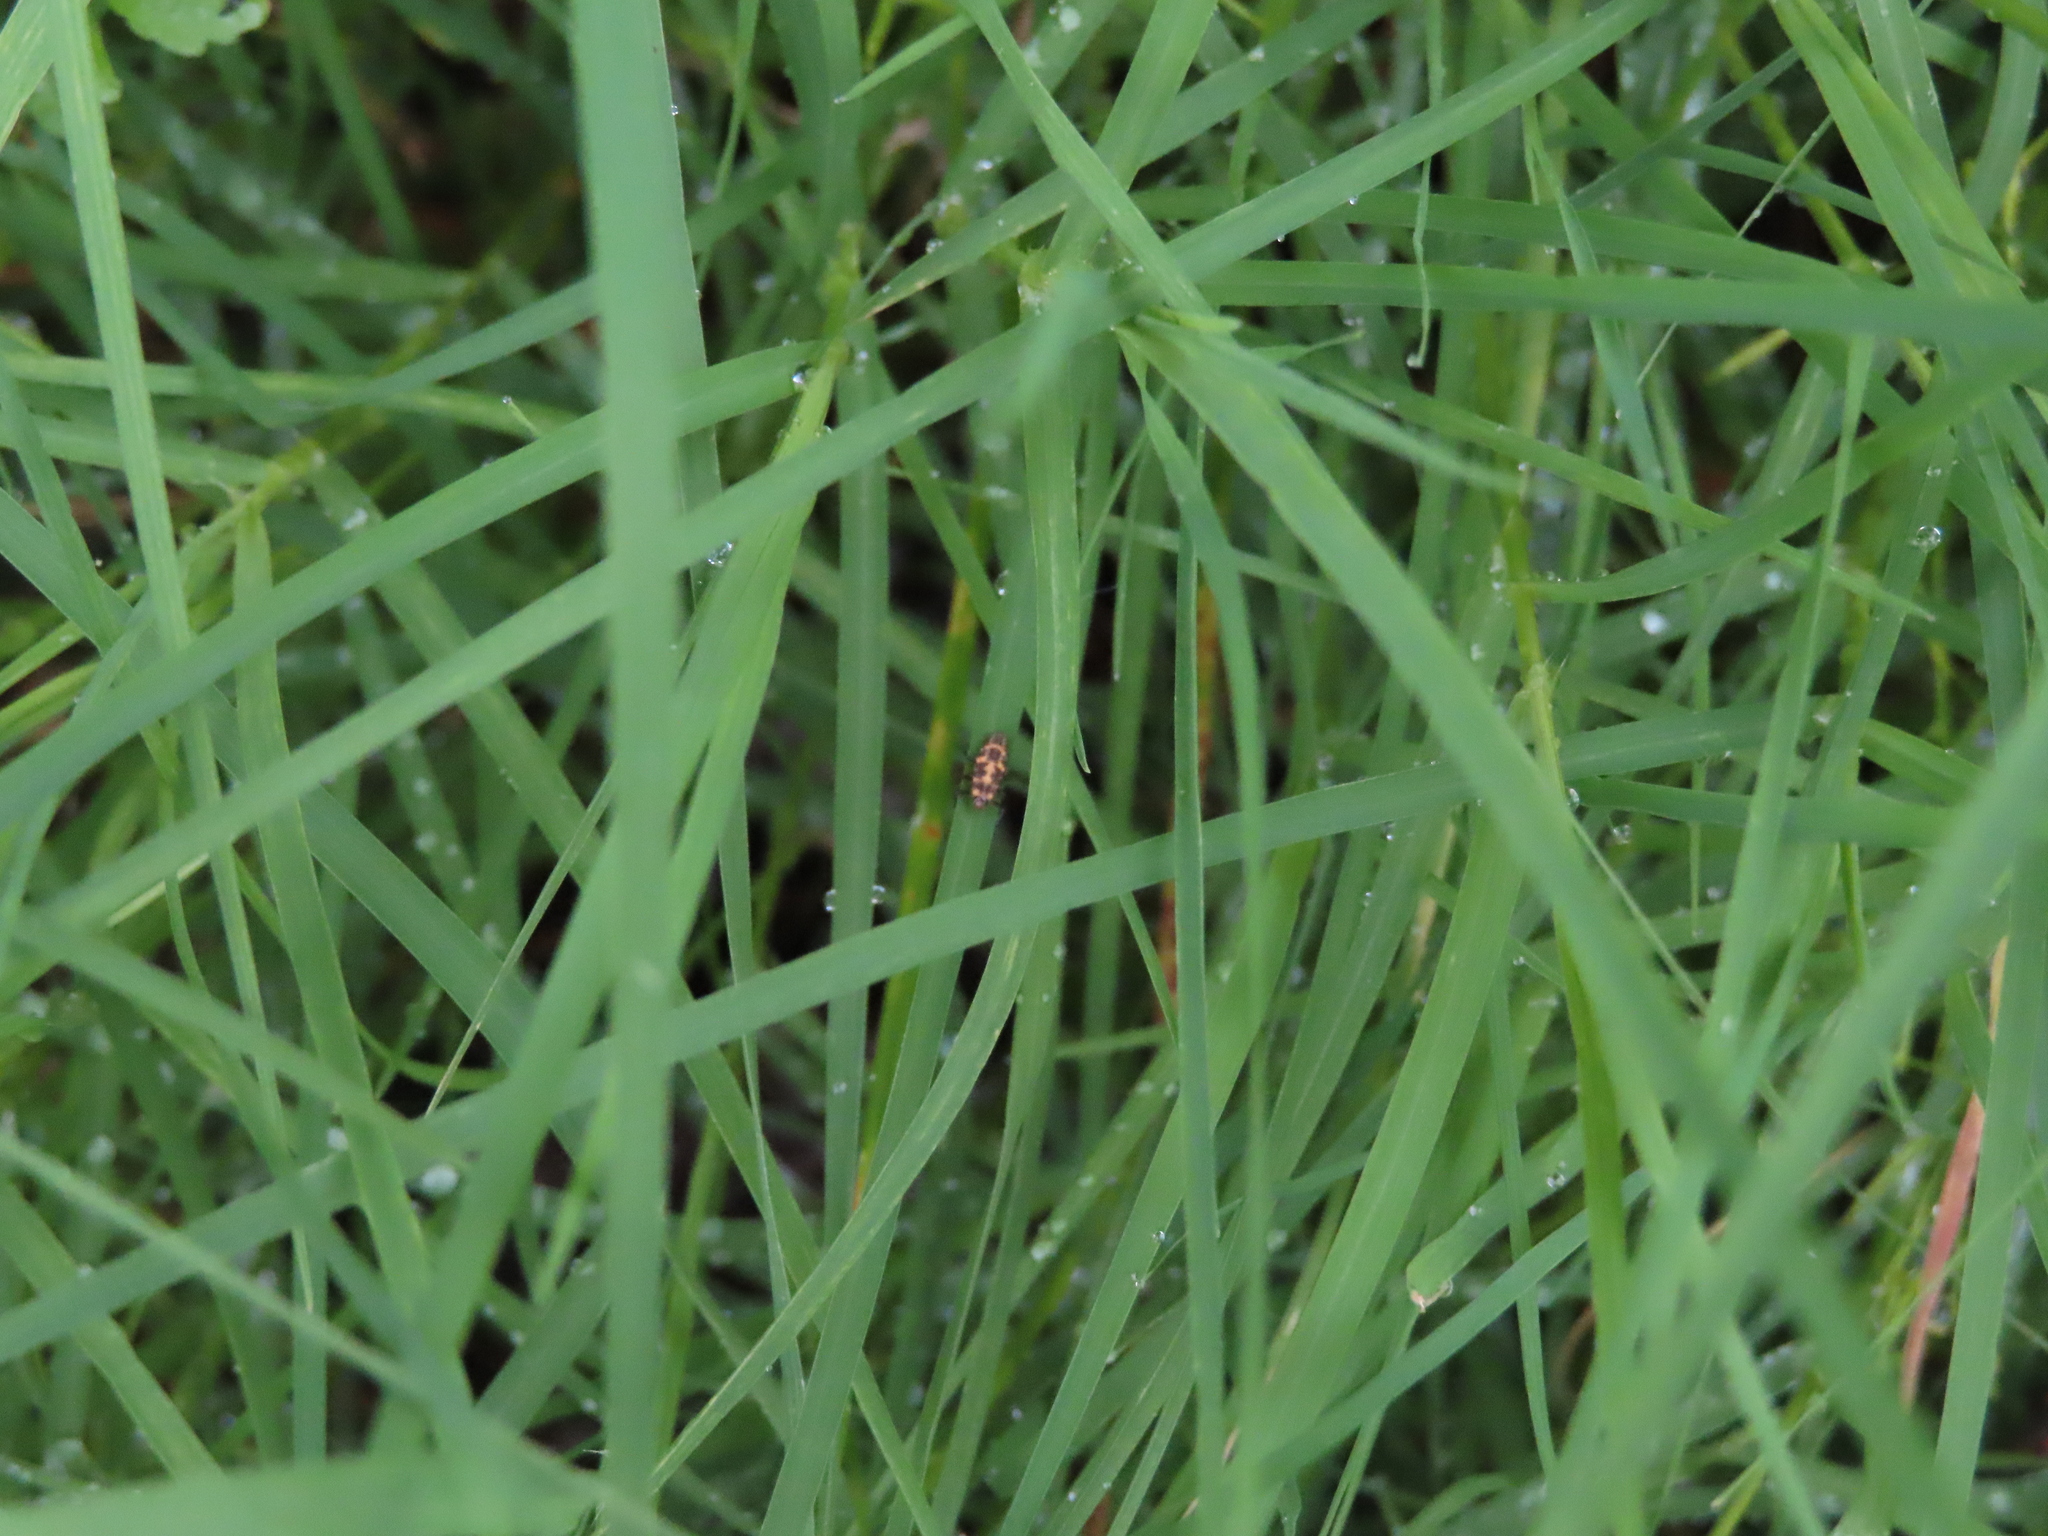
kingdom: Animalia
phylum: Arthropoda
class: Insecta
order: Coleoptera
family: Coccinellidae
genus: Coleomegilla
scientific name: Coleomegilla maculata
